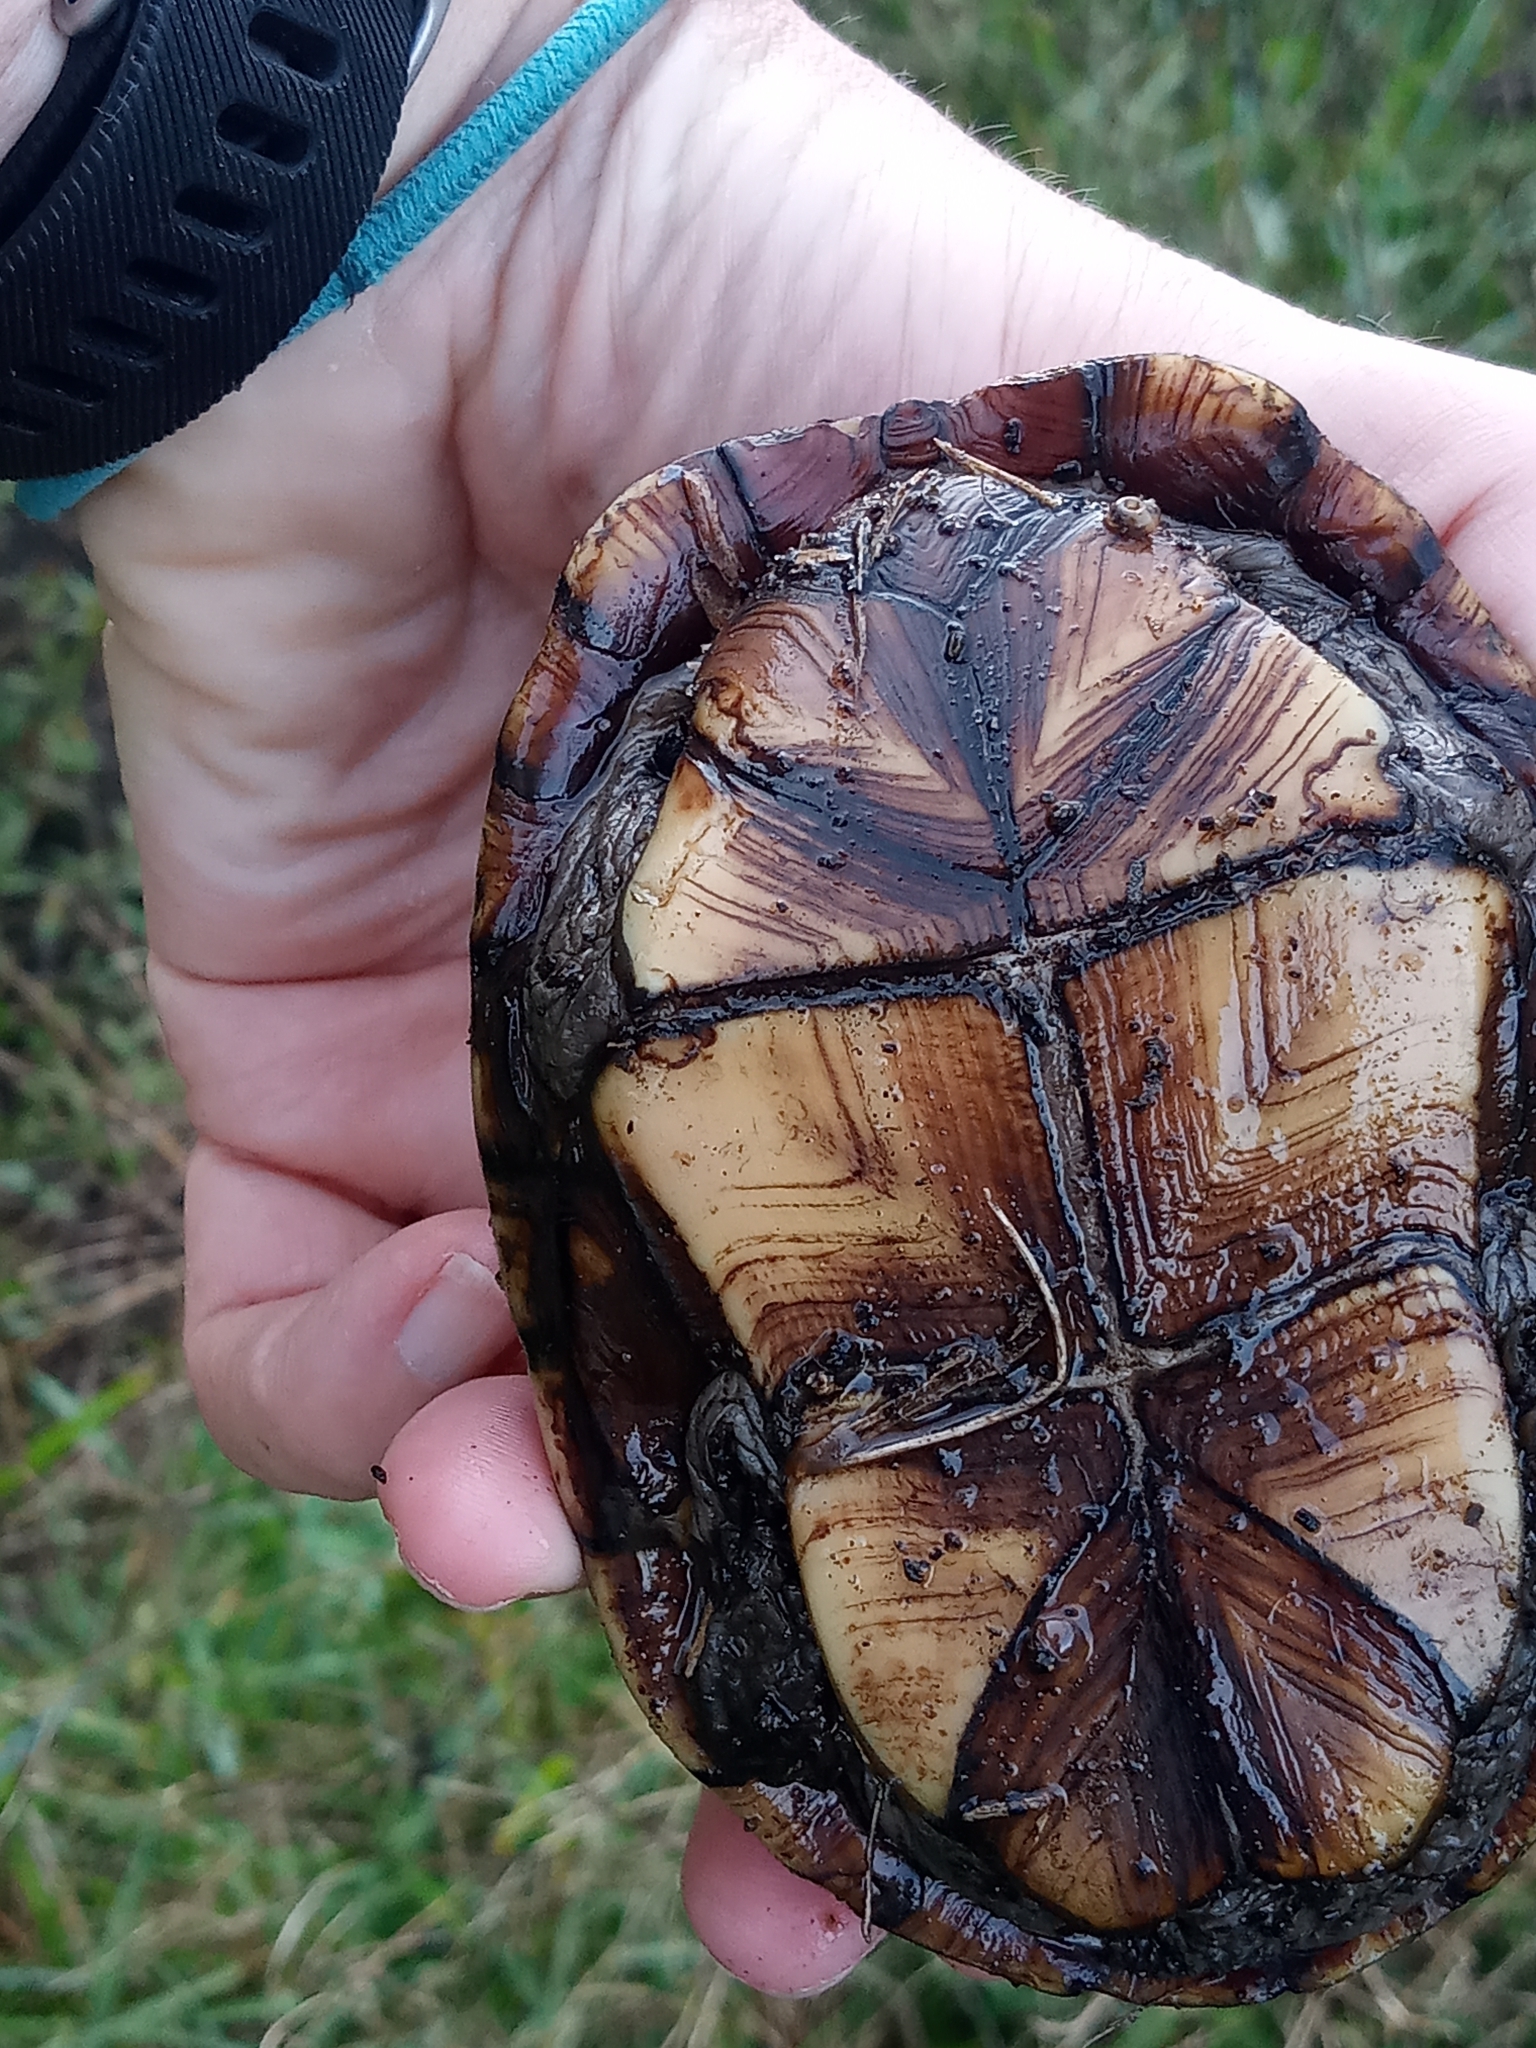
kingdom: Animalia
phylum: Chordata
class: Testudines
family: Kinosternidae
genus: Kinosternon
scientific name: Kinosternon subrubrum
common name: Eastern mud turtle
